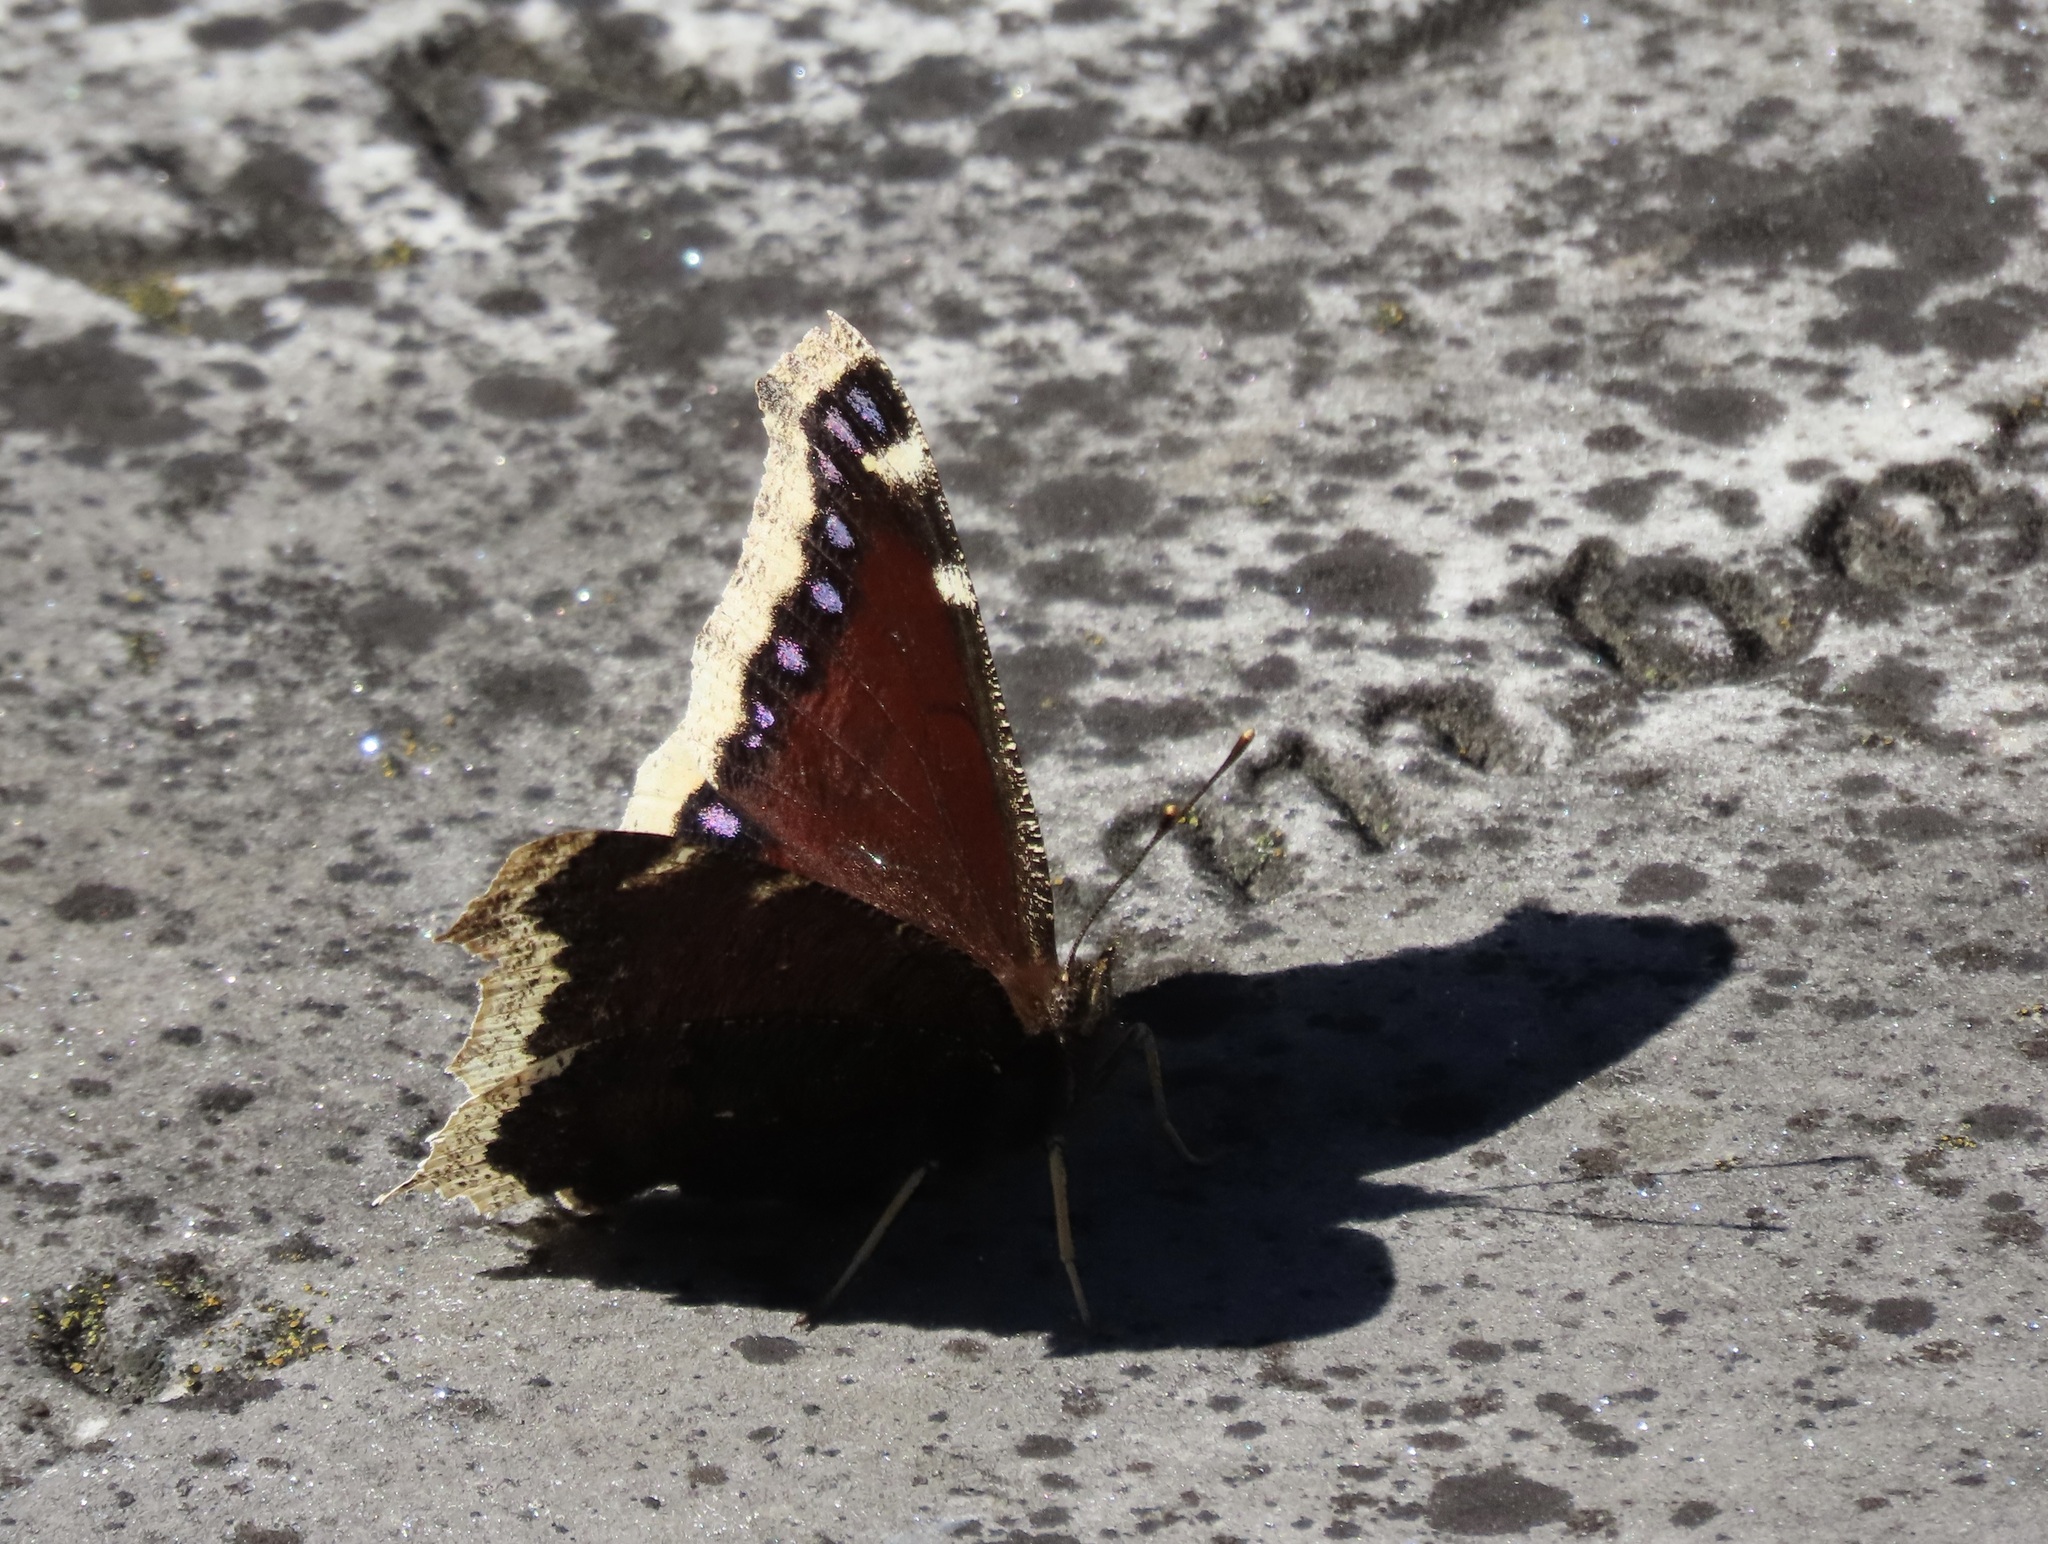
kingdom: Animalia
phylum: Arthropoda
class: Insecta
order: Lepidoptera
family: Nymphalidae
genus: Nymphalis
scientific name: Nymphalis antiopa
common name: Camberwell beauty
